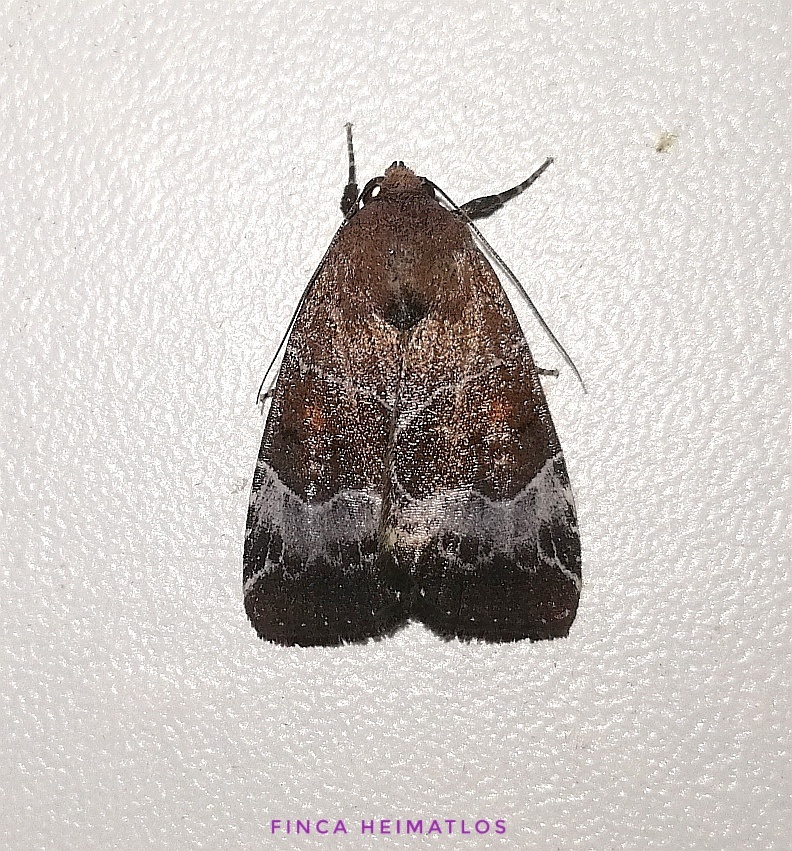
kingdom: Animalia
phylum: Arthropoda
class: Insecta
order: Lepidoptera
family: Noctuidae
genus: Hampsonodes
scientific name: Hampsonodes mastoides
